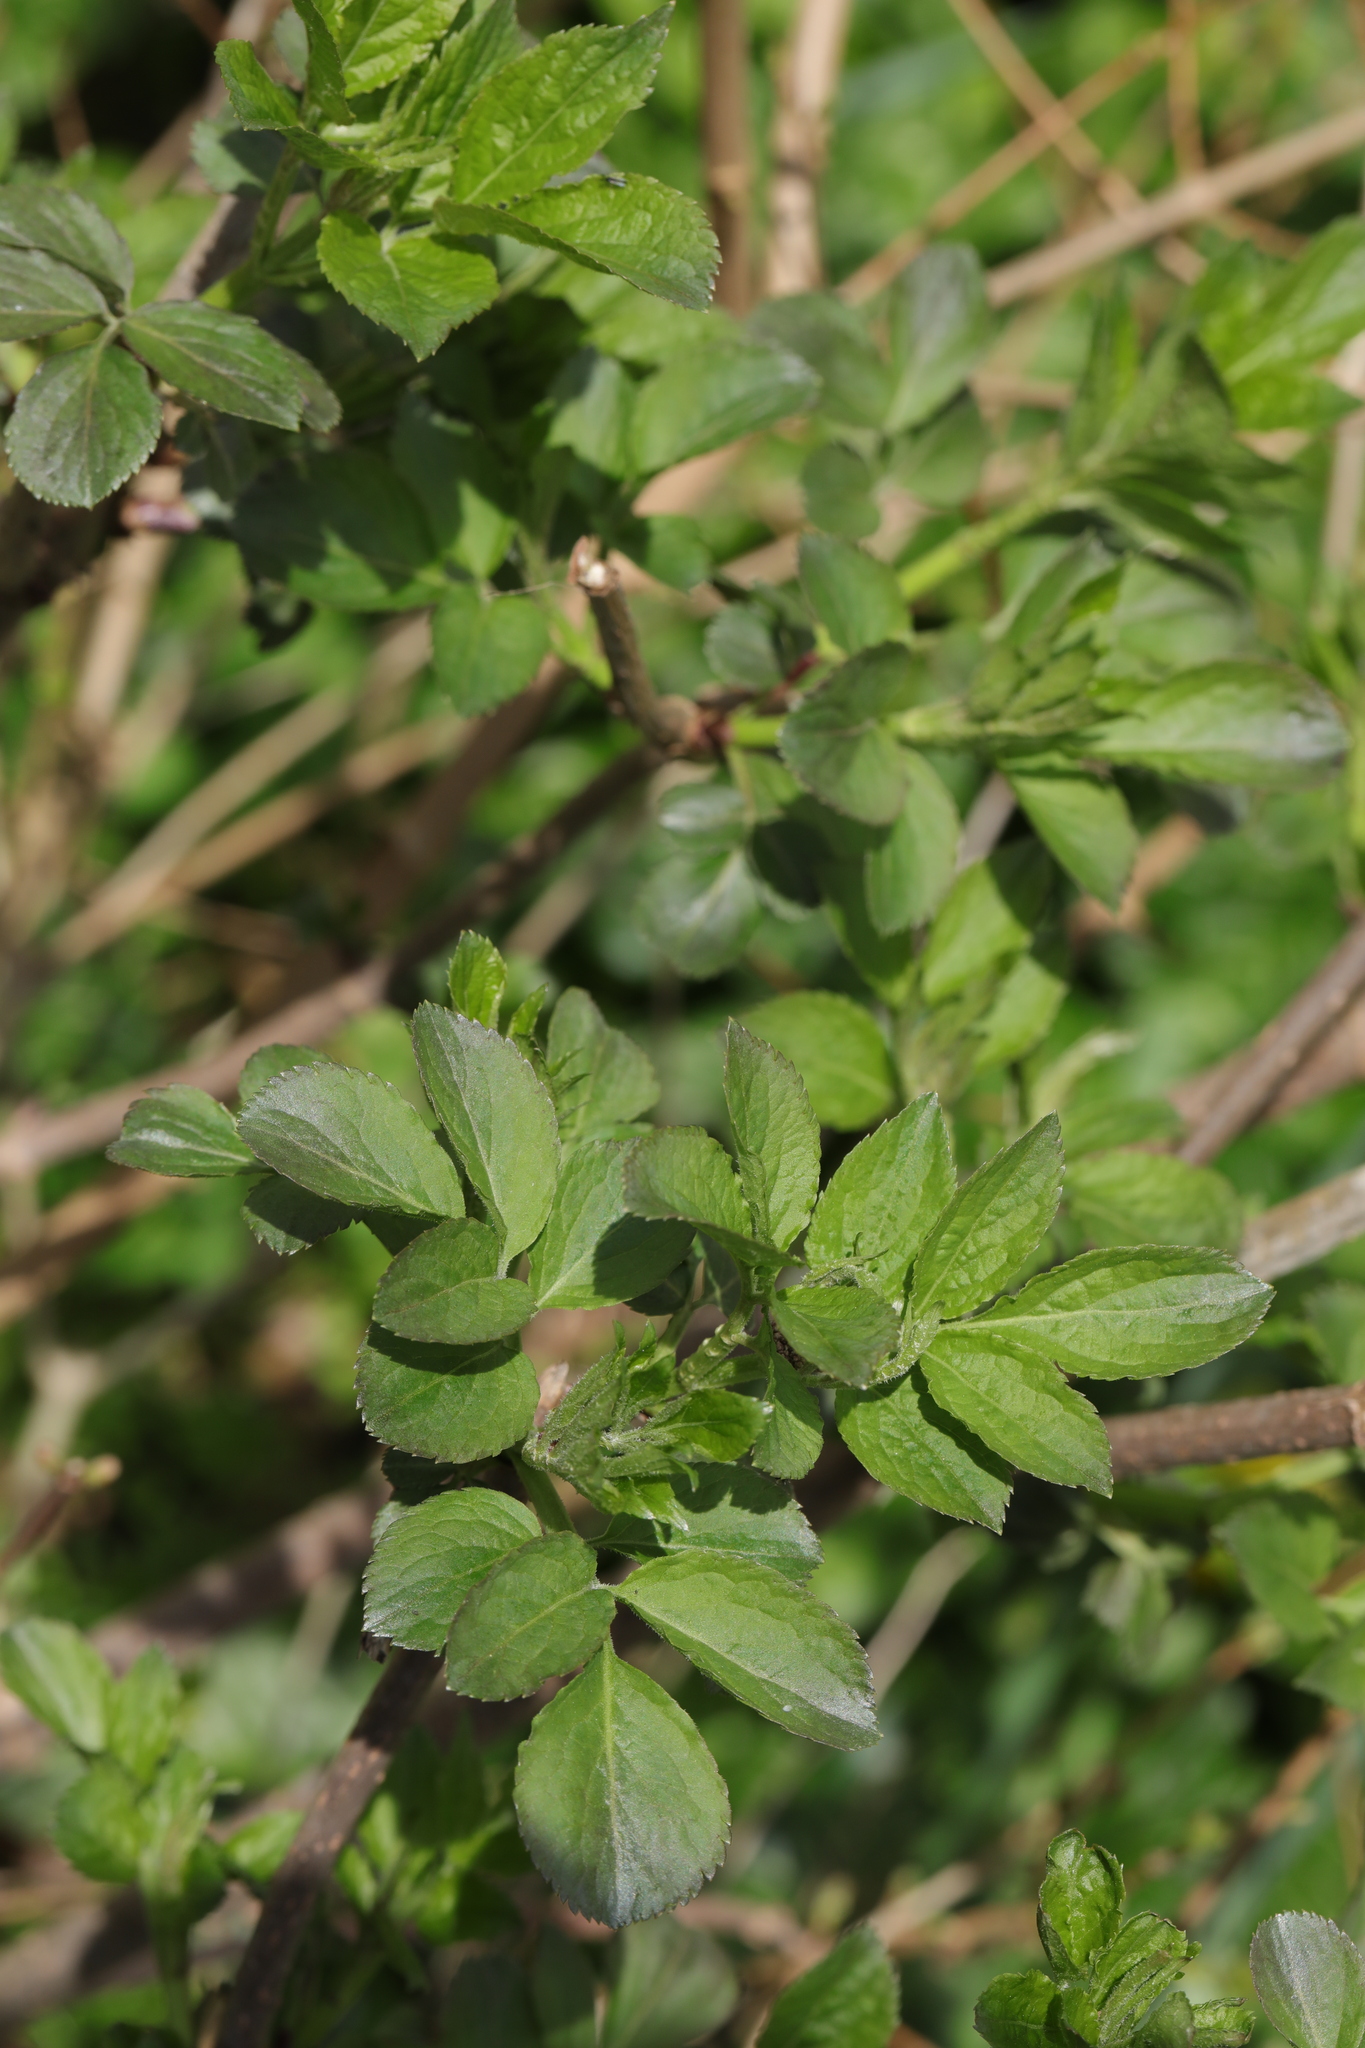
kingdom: Plantae
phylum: Tracheophyta
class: Magnoliopsida
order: Dipsacales
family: Viburnaceae
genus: Sambucus
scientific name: Sambucus nigra
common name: Elder
